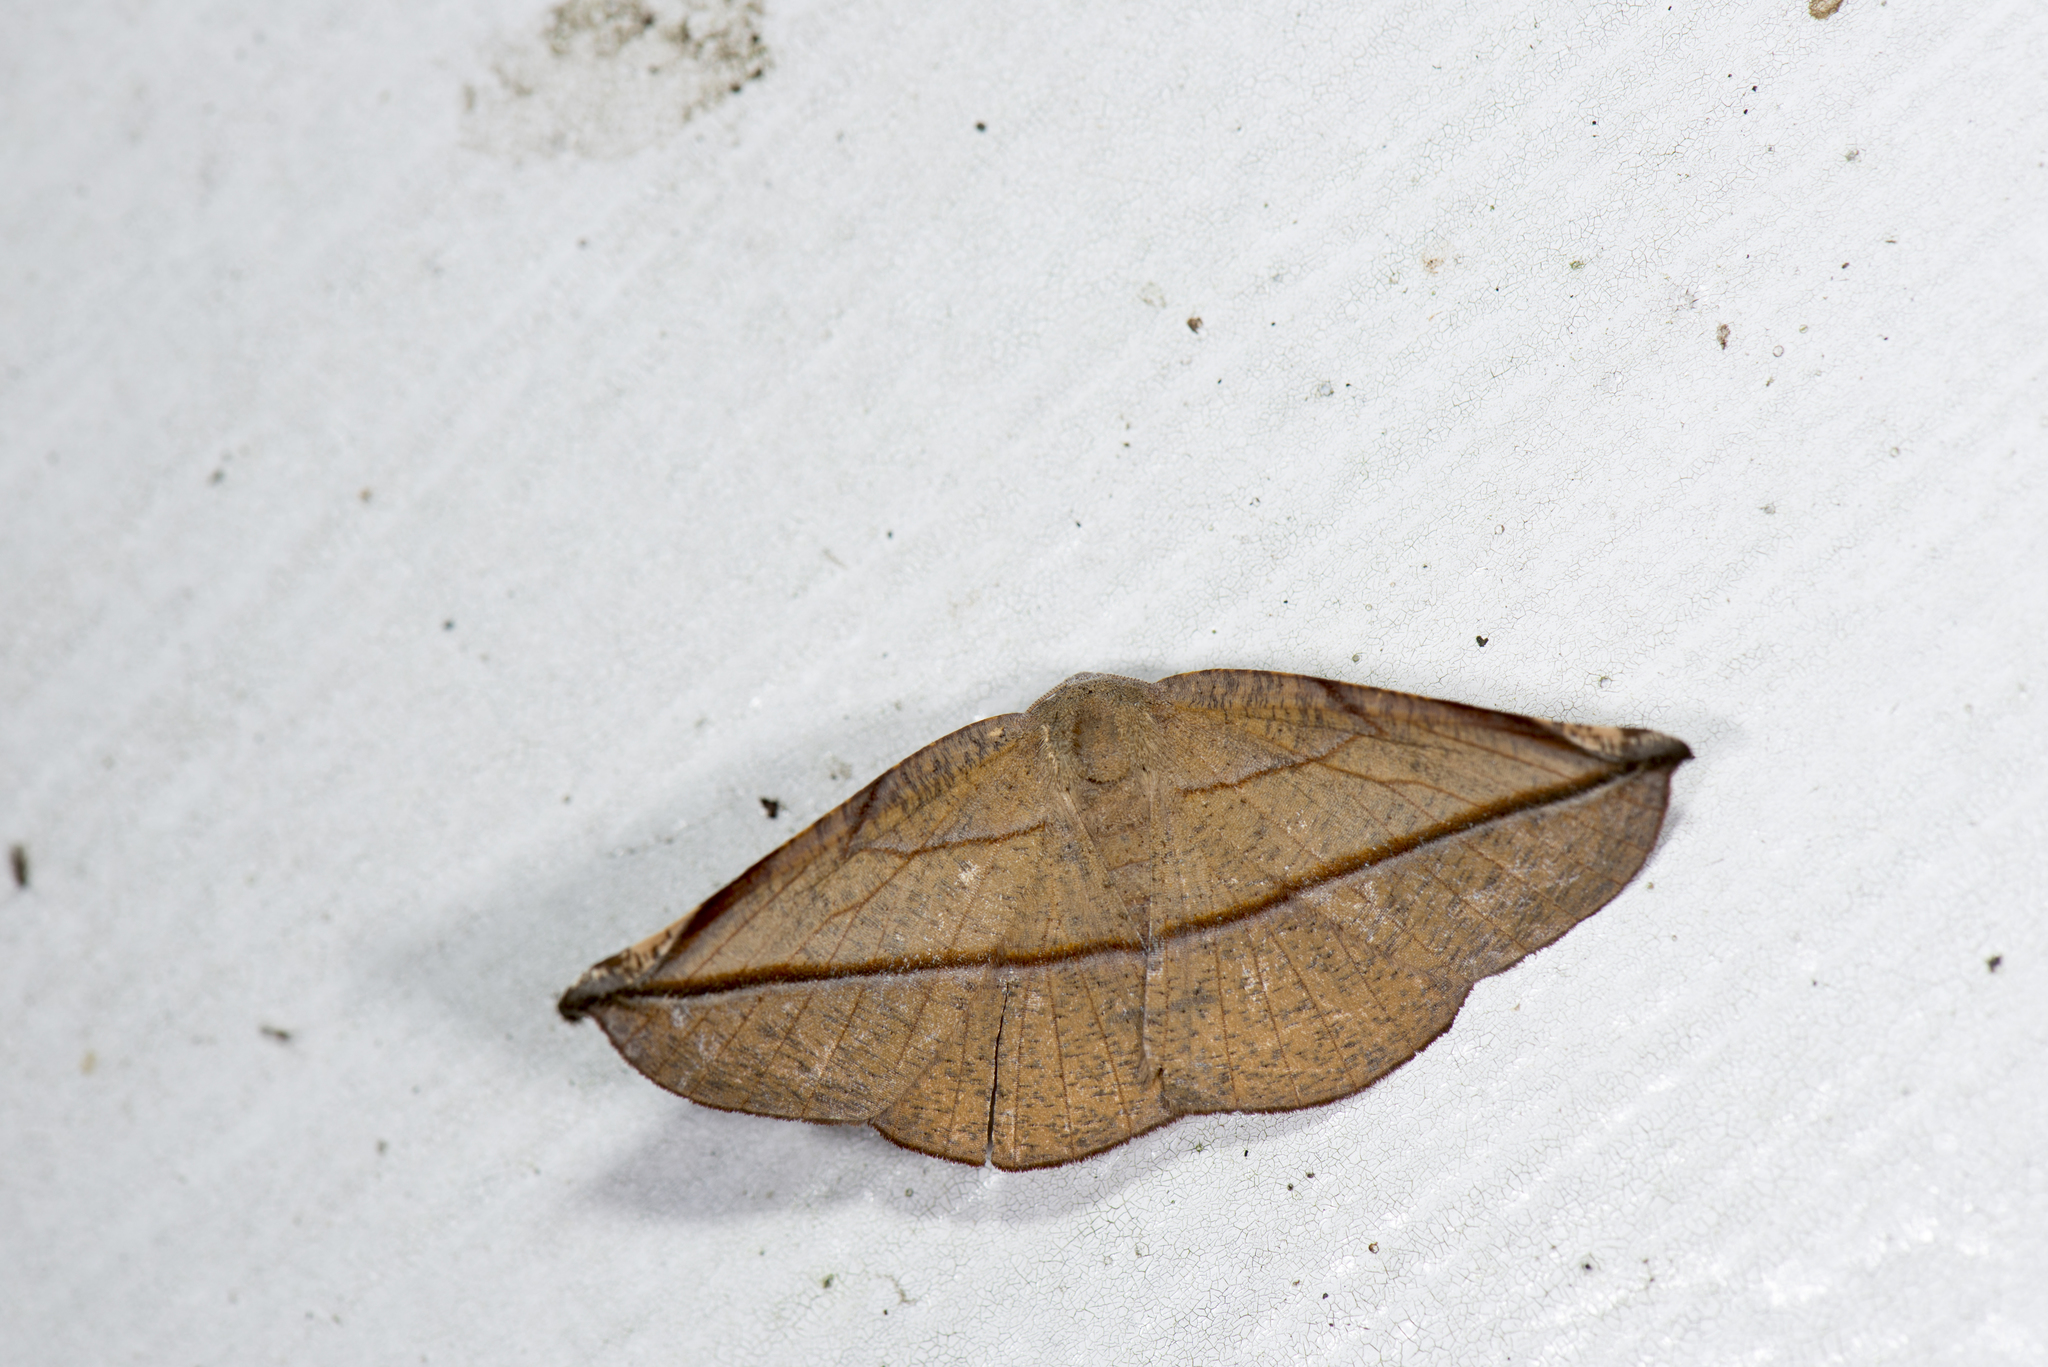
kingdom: Animalia
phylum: Arthropoda
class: Insecta
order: Lepidoptera
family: Geometridae
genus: Pseudomiza
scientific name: Pseudomiza obliquaria
